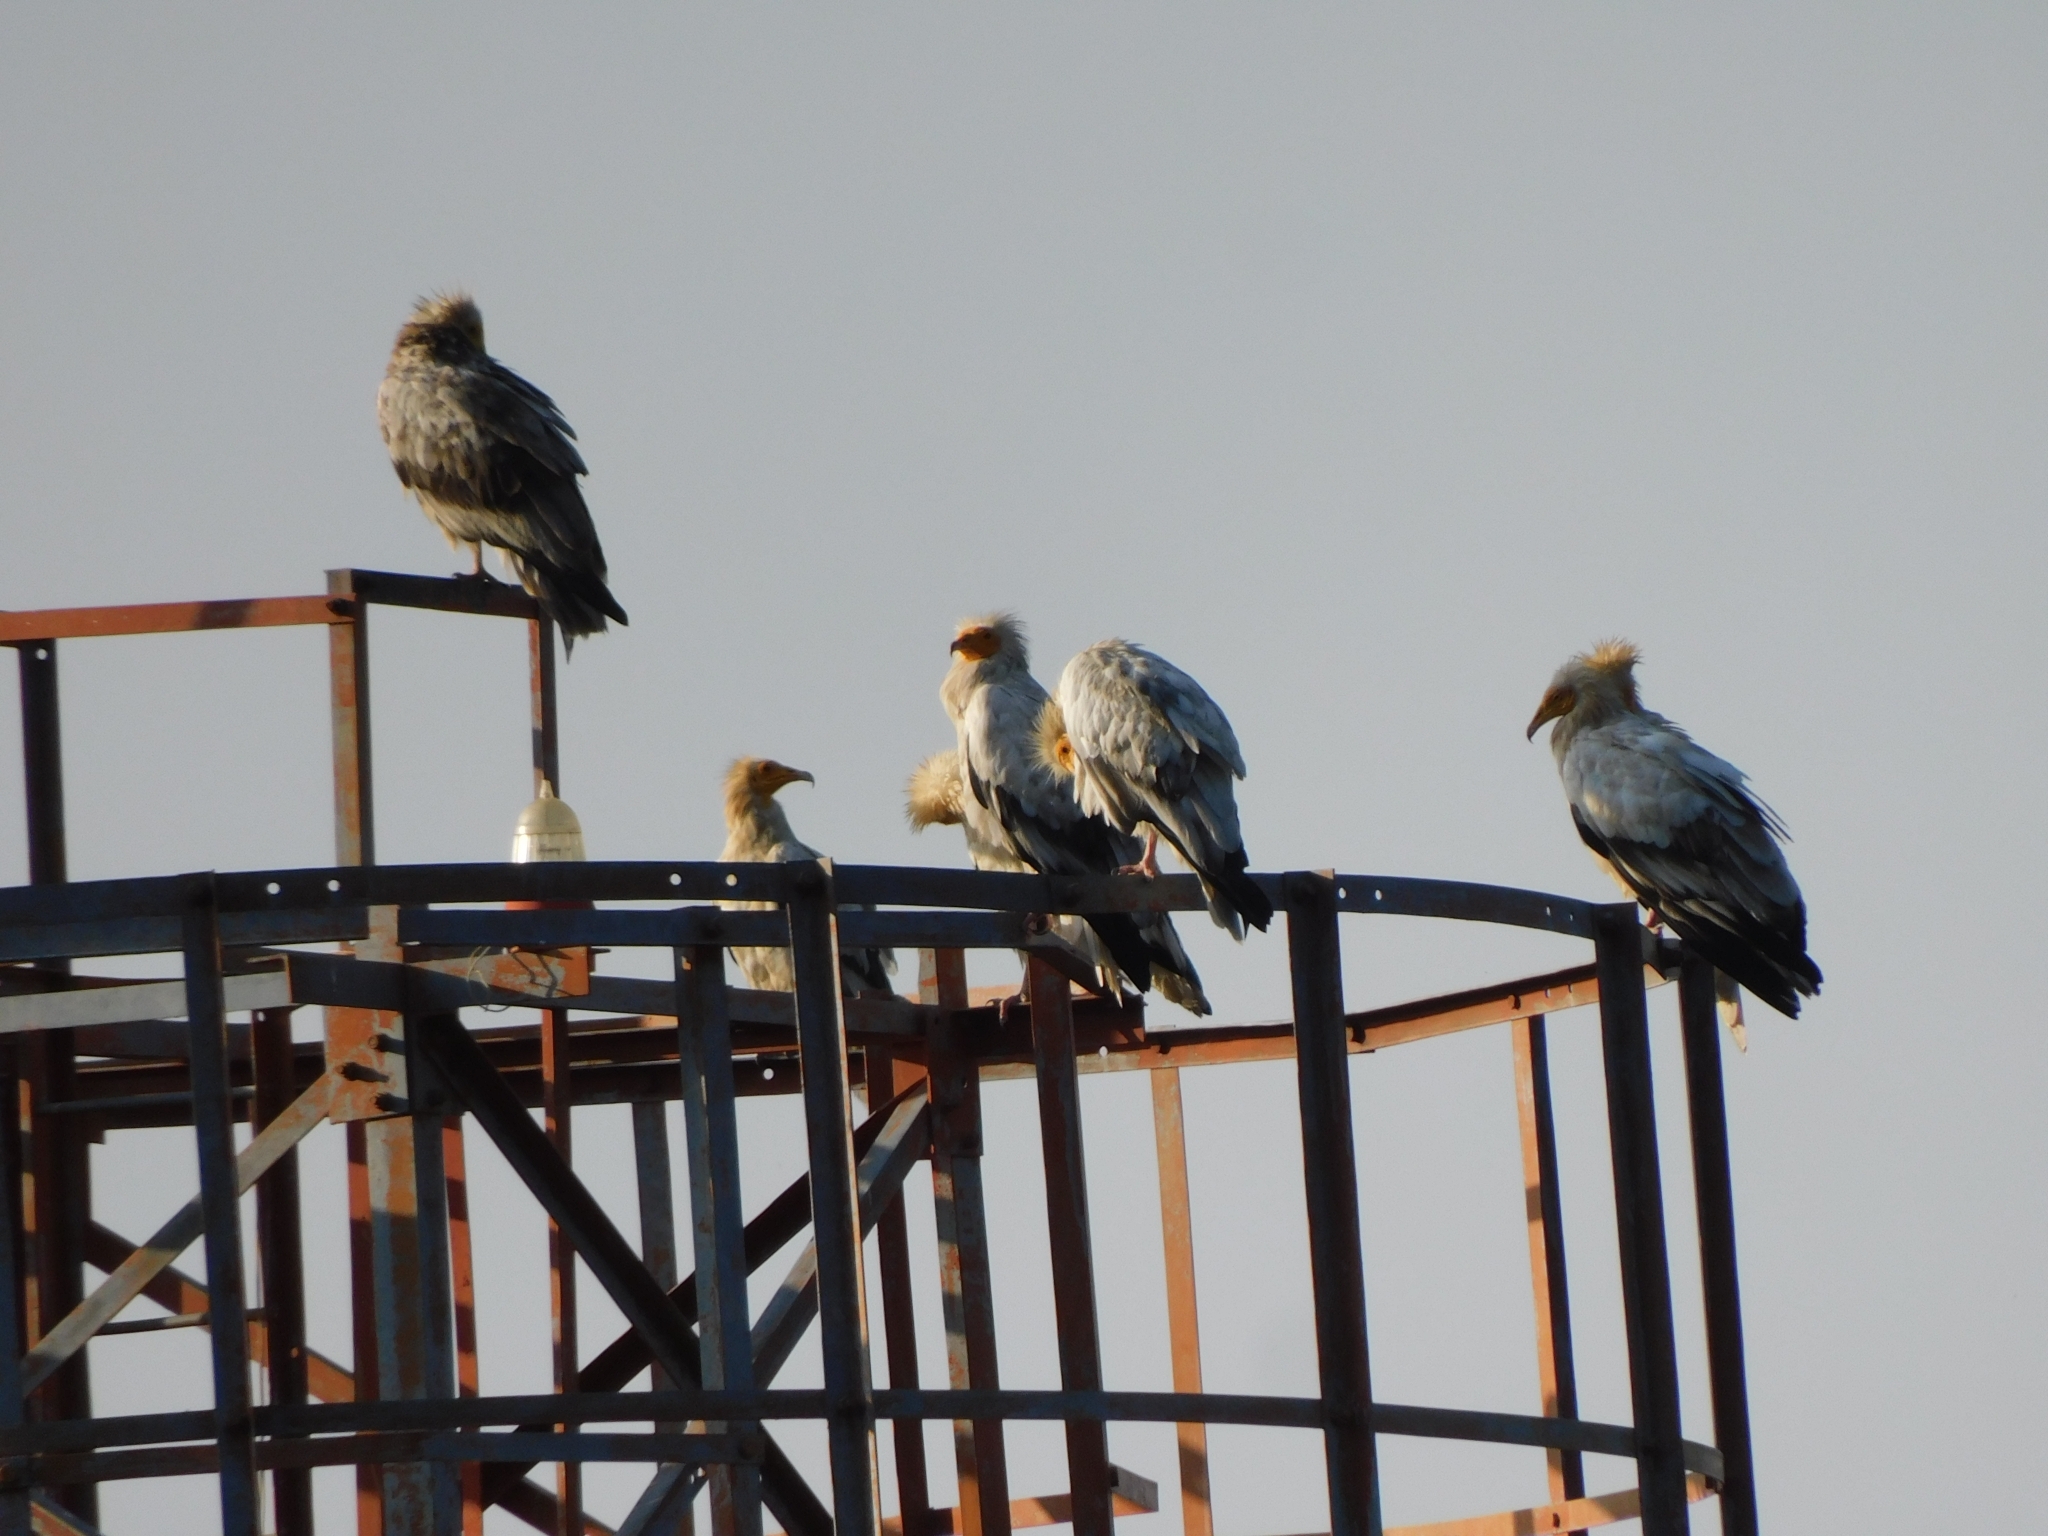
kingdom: Animalia
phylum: Chordata
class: Aves
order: Accipitriformes
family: Accipitridae
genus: Neophron
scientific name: Neophron percnopterus
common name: Egyptian vulture
